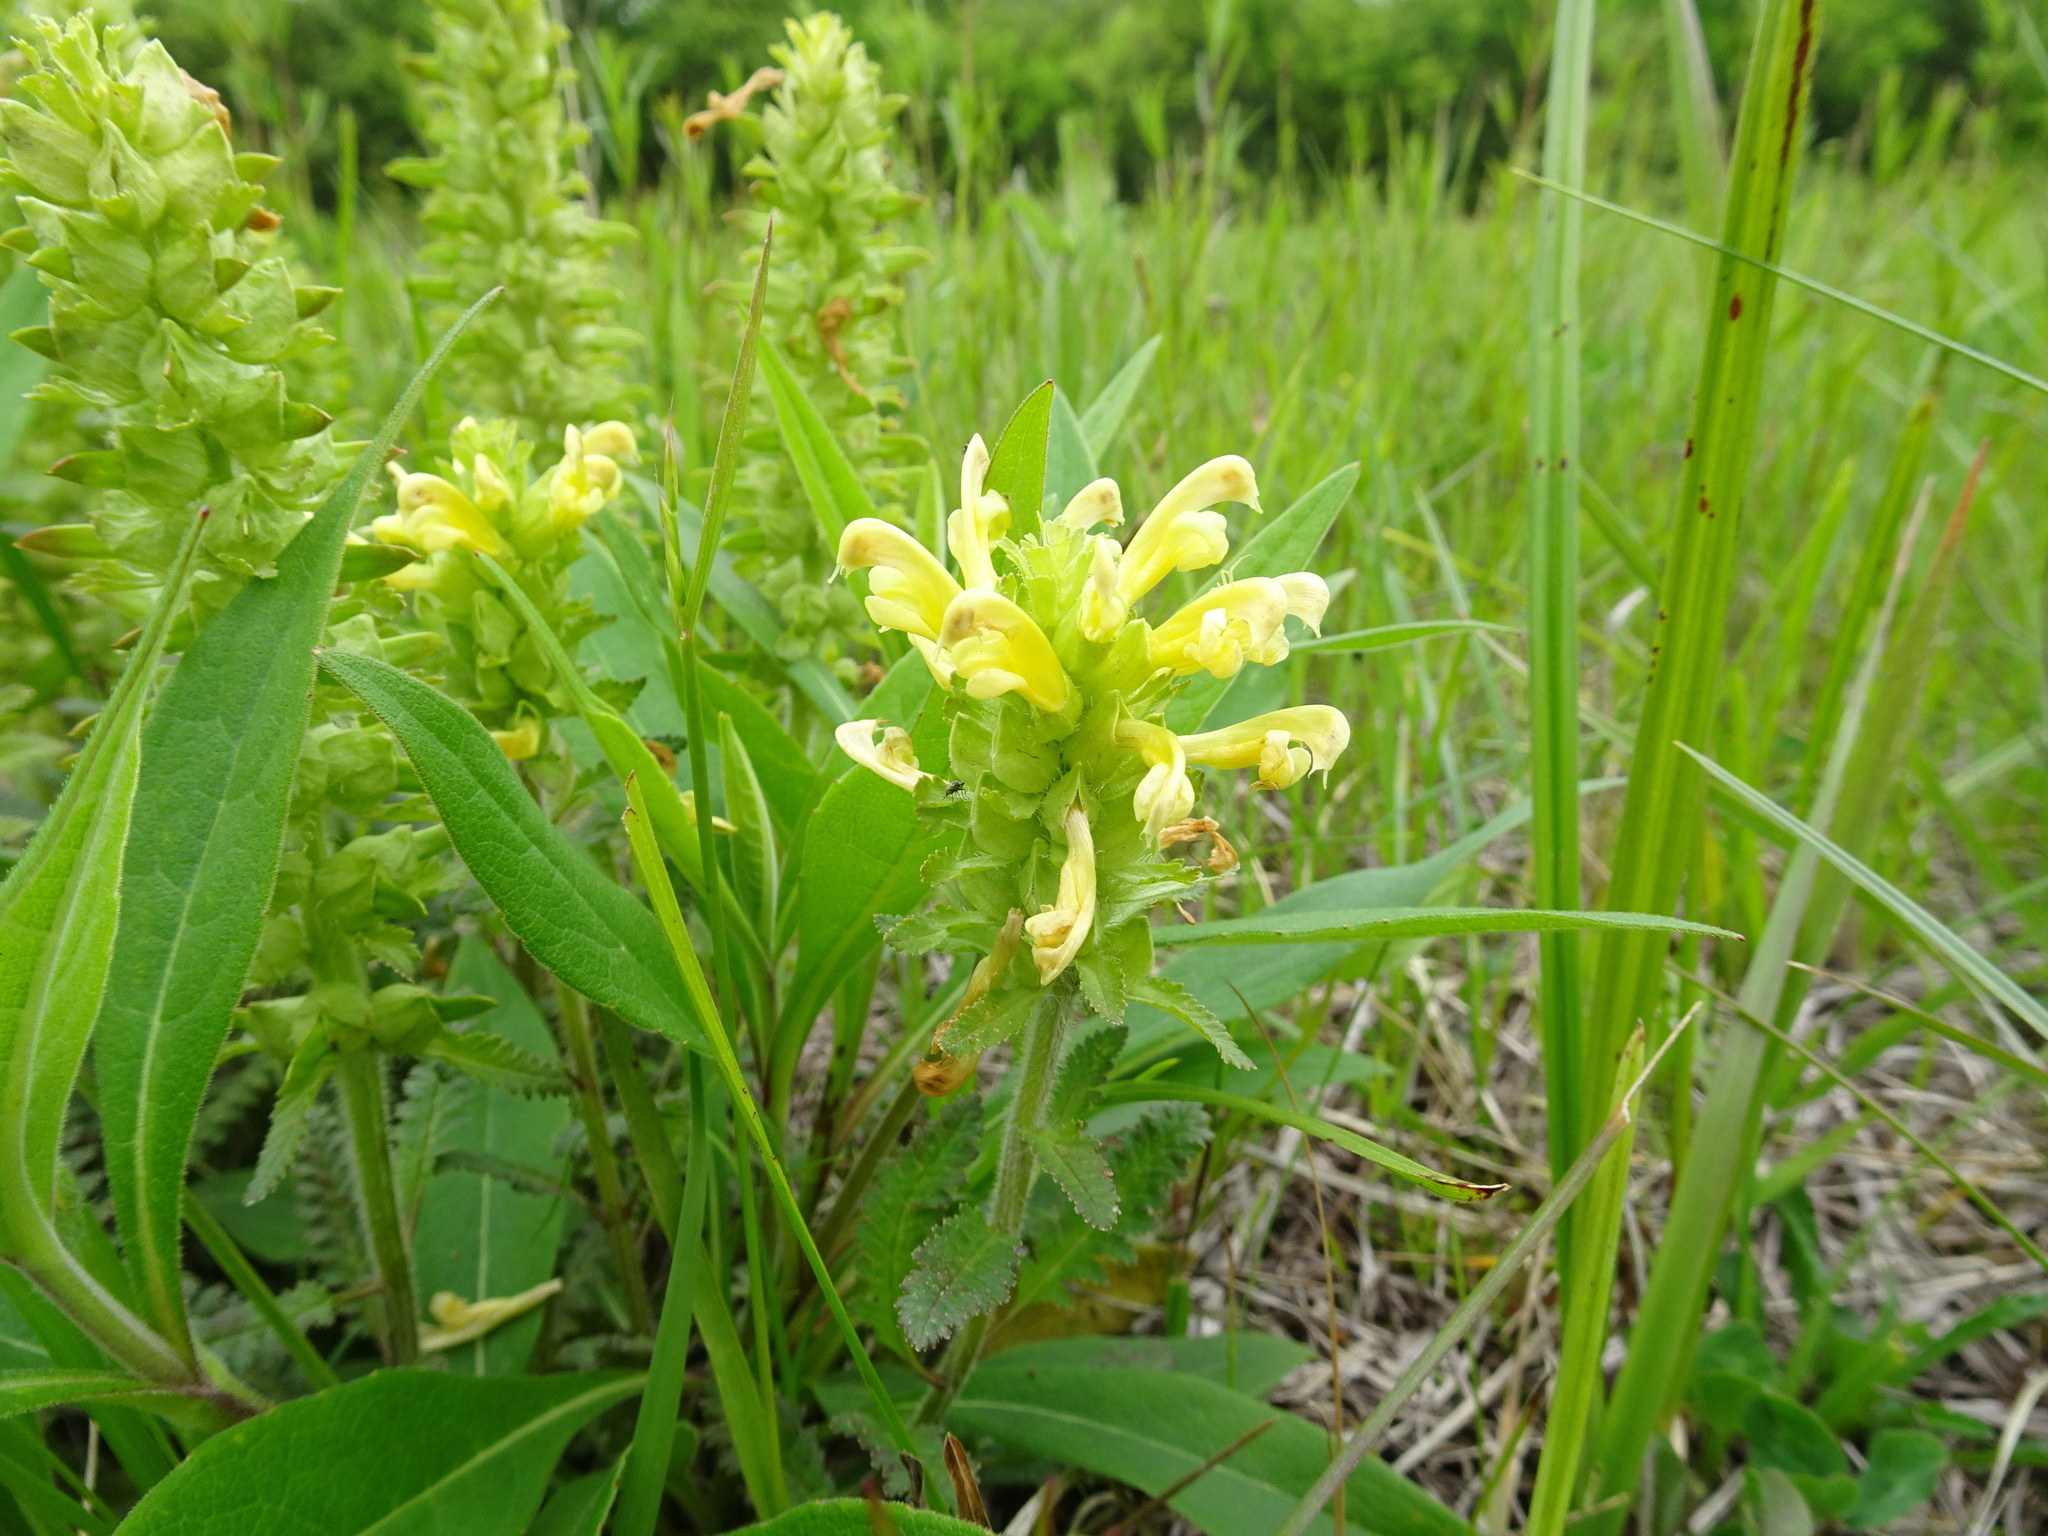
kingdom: Plantae
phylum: Tracheophyta
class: Magnoliopsida
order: Lamiales
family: Orobanchaceae
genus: Pedicularis
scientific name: Pedicularis canadensis
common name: Early lousewort
